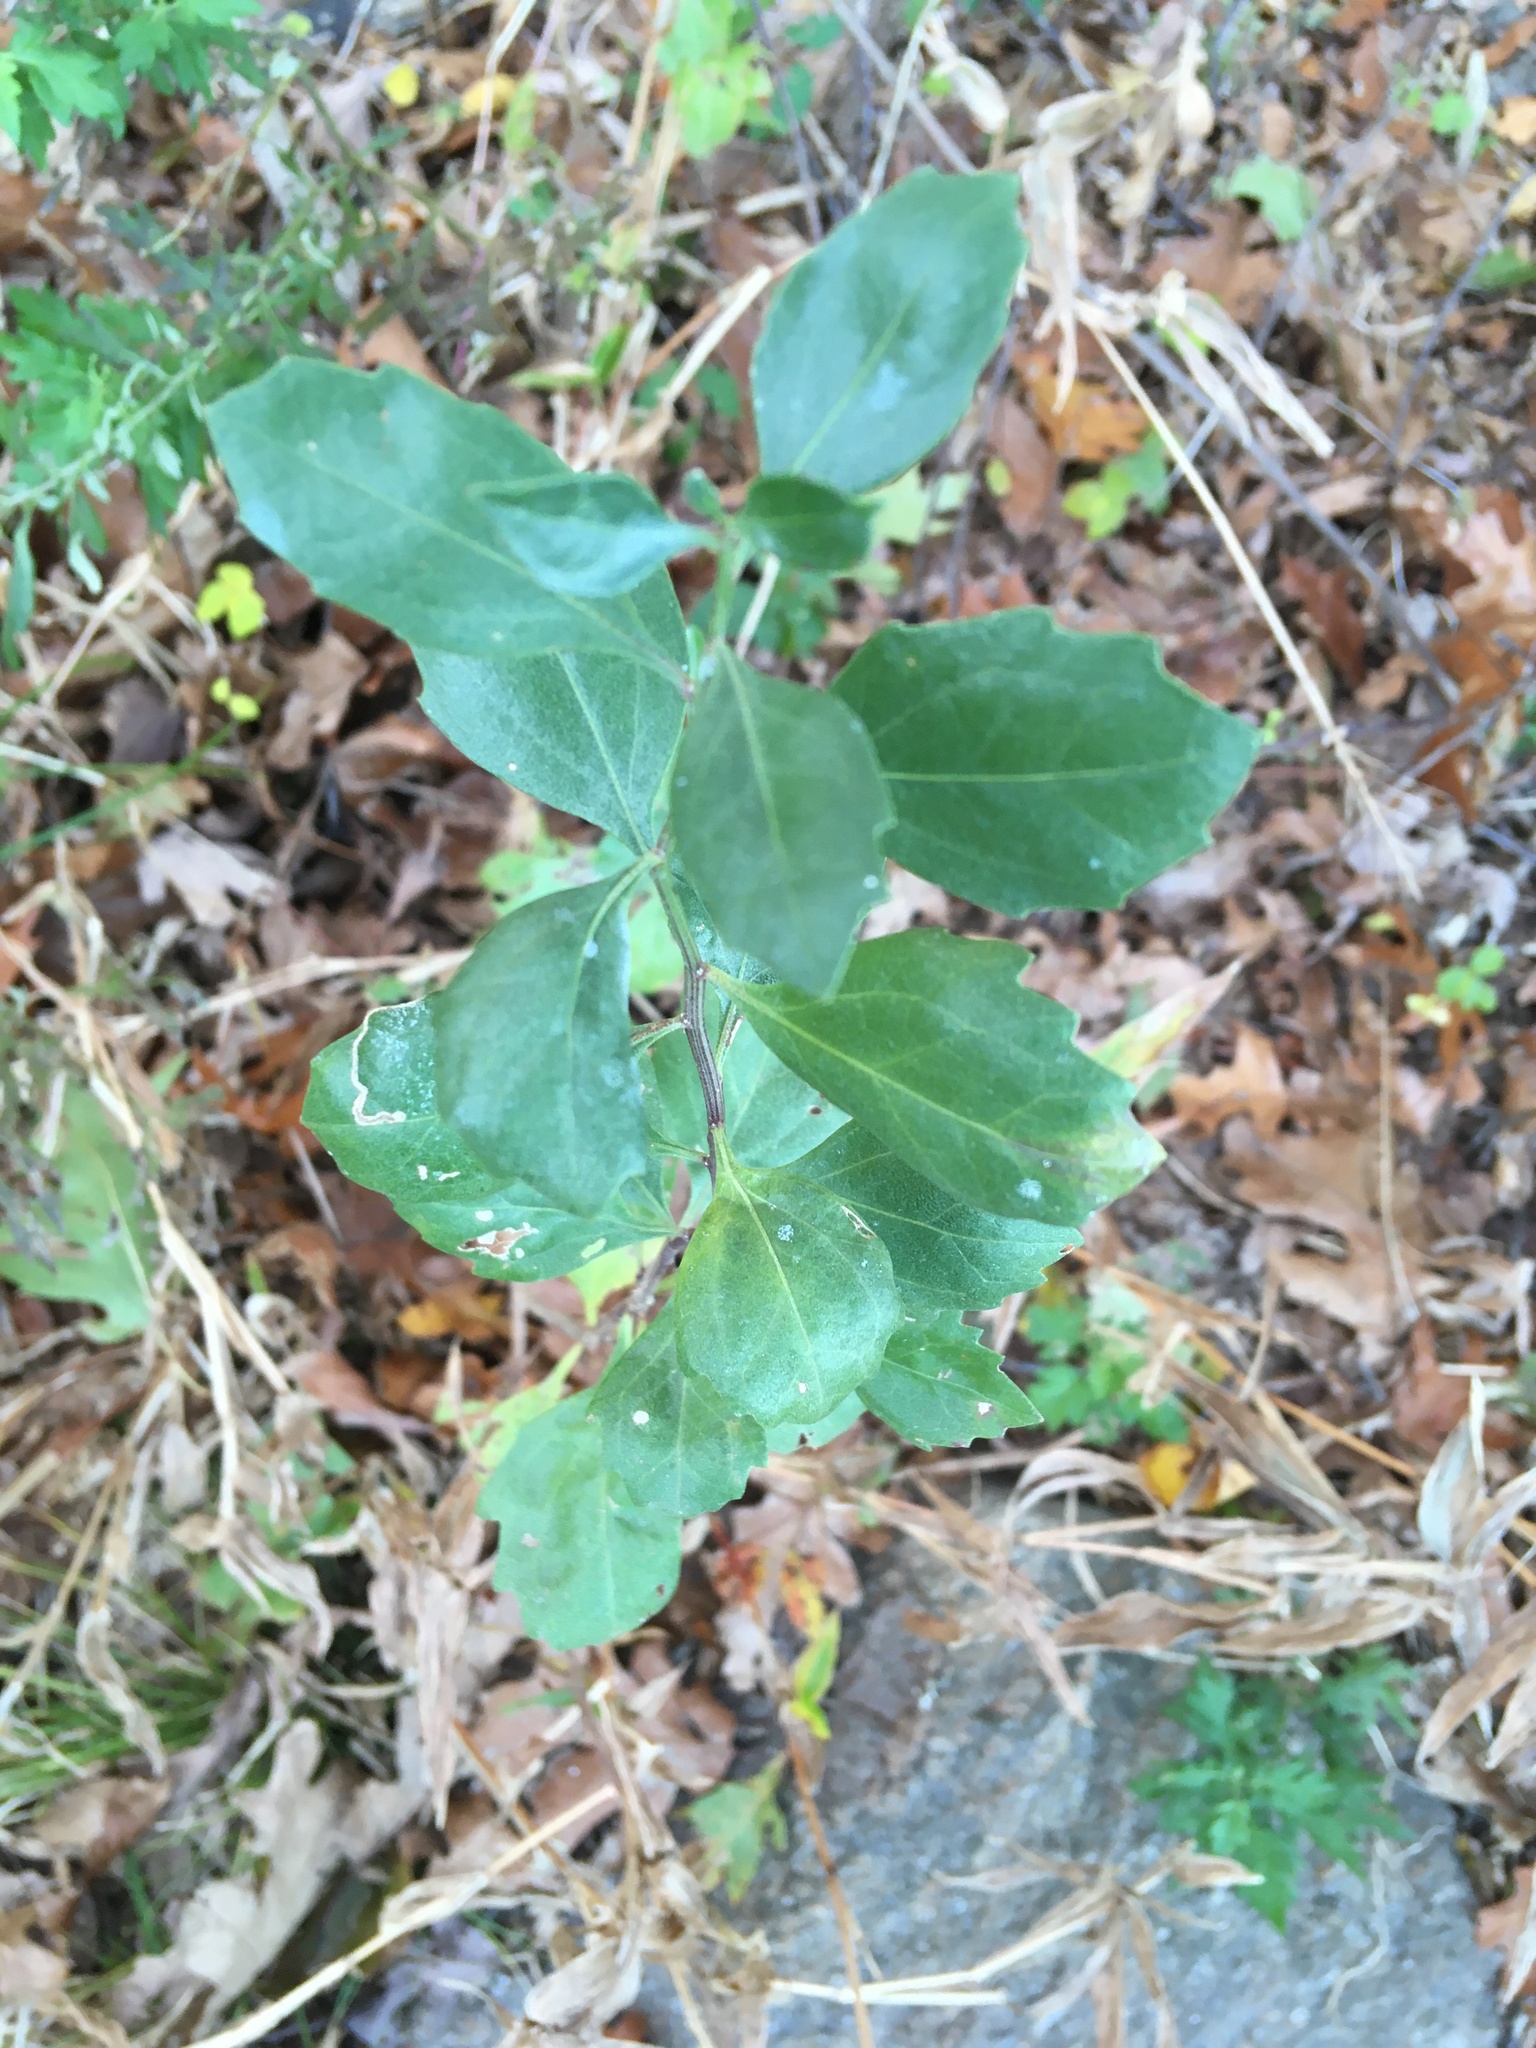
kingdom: Plantae
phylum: Tracheophyta
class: Magnoliopsida
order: Asterales
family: Asteraceae
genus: Baccharis
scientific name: Baccharis halimifolia
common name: Eastern baccharis
